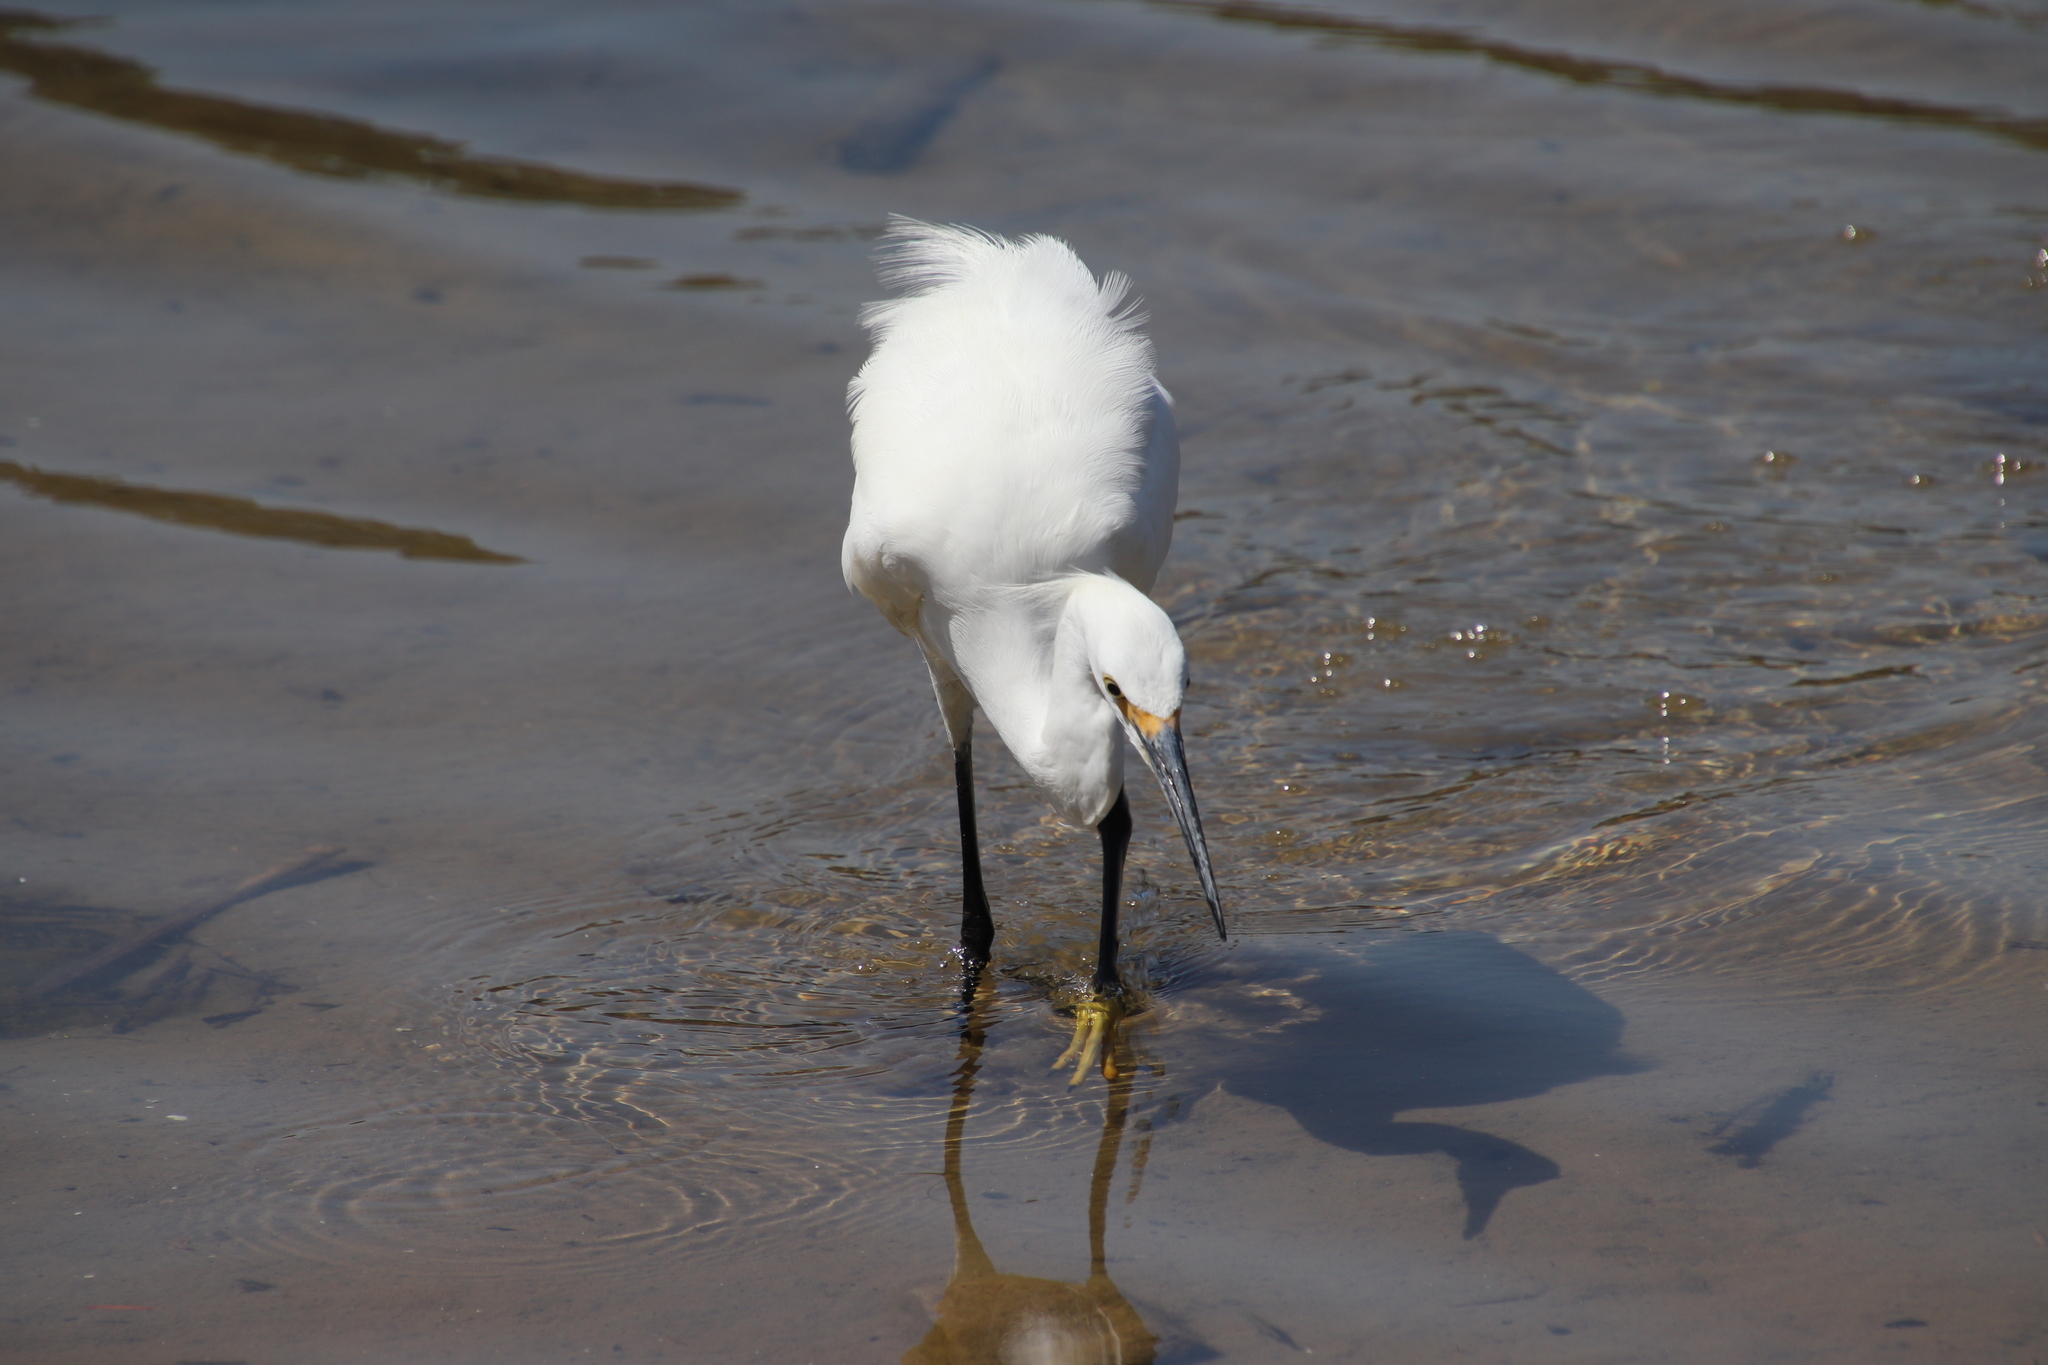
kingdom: Animalia
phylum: Chordata
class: Aves
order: Pelecaniformes
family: Ardeidae
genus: Egretta
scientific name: Egretta thula
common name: Snowy egret
